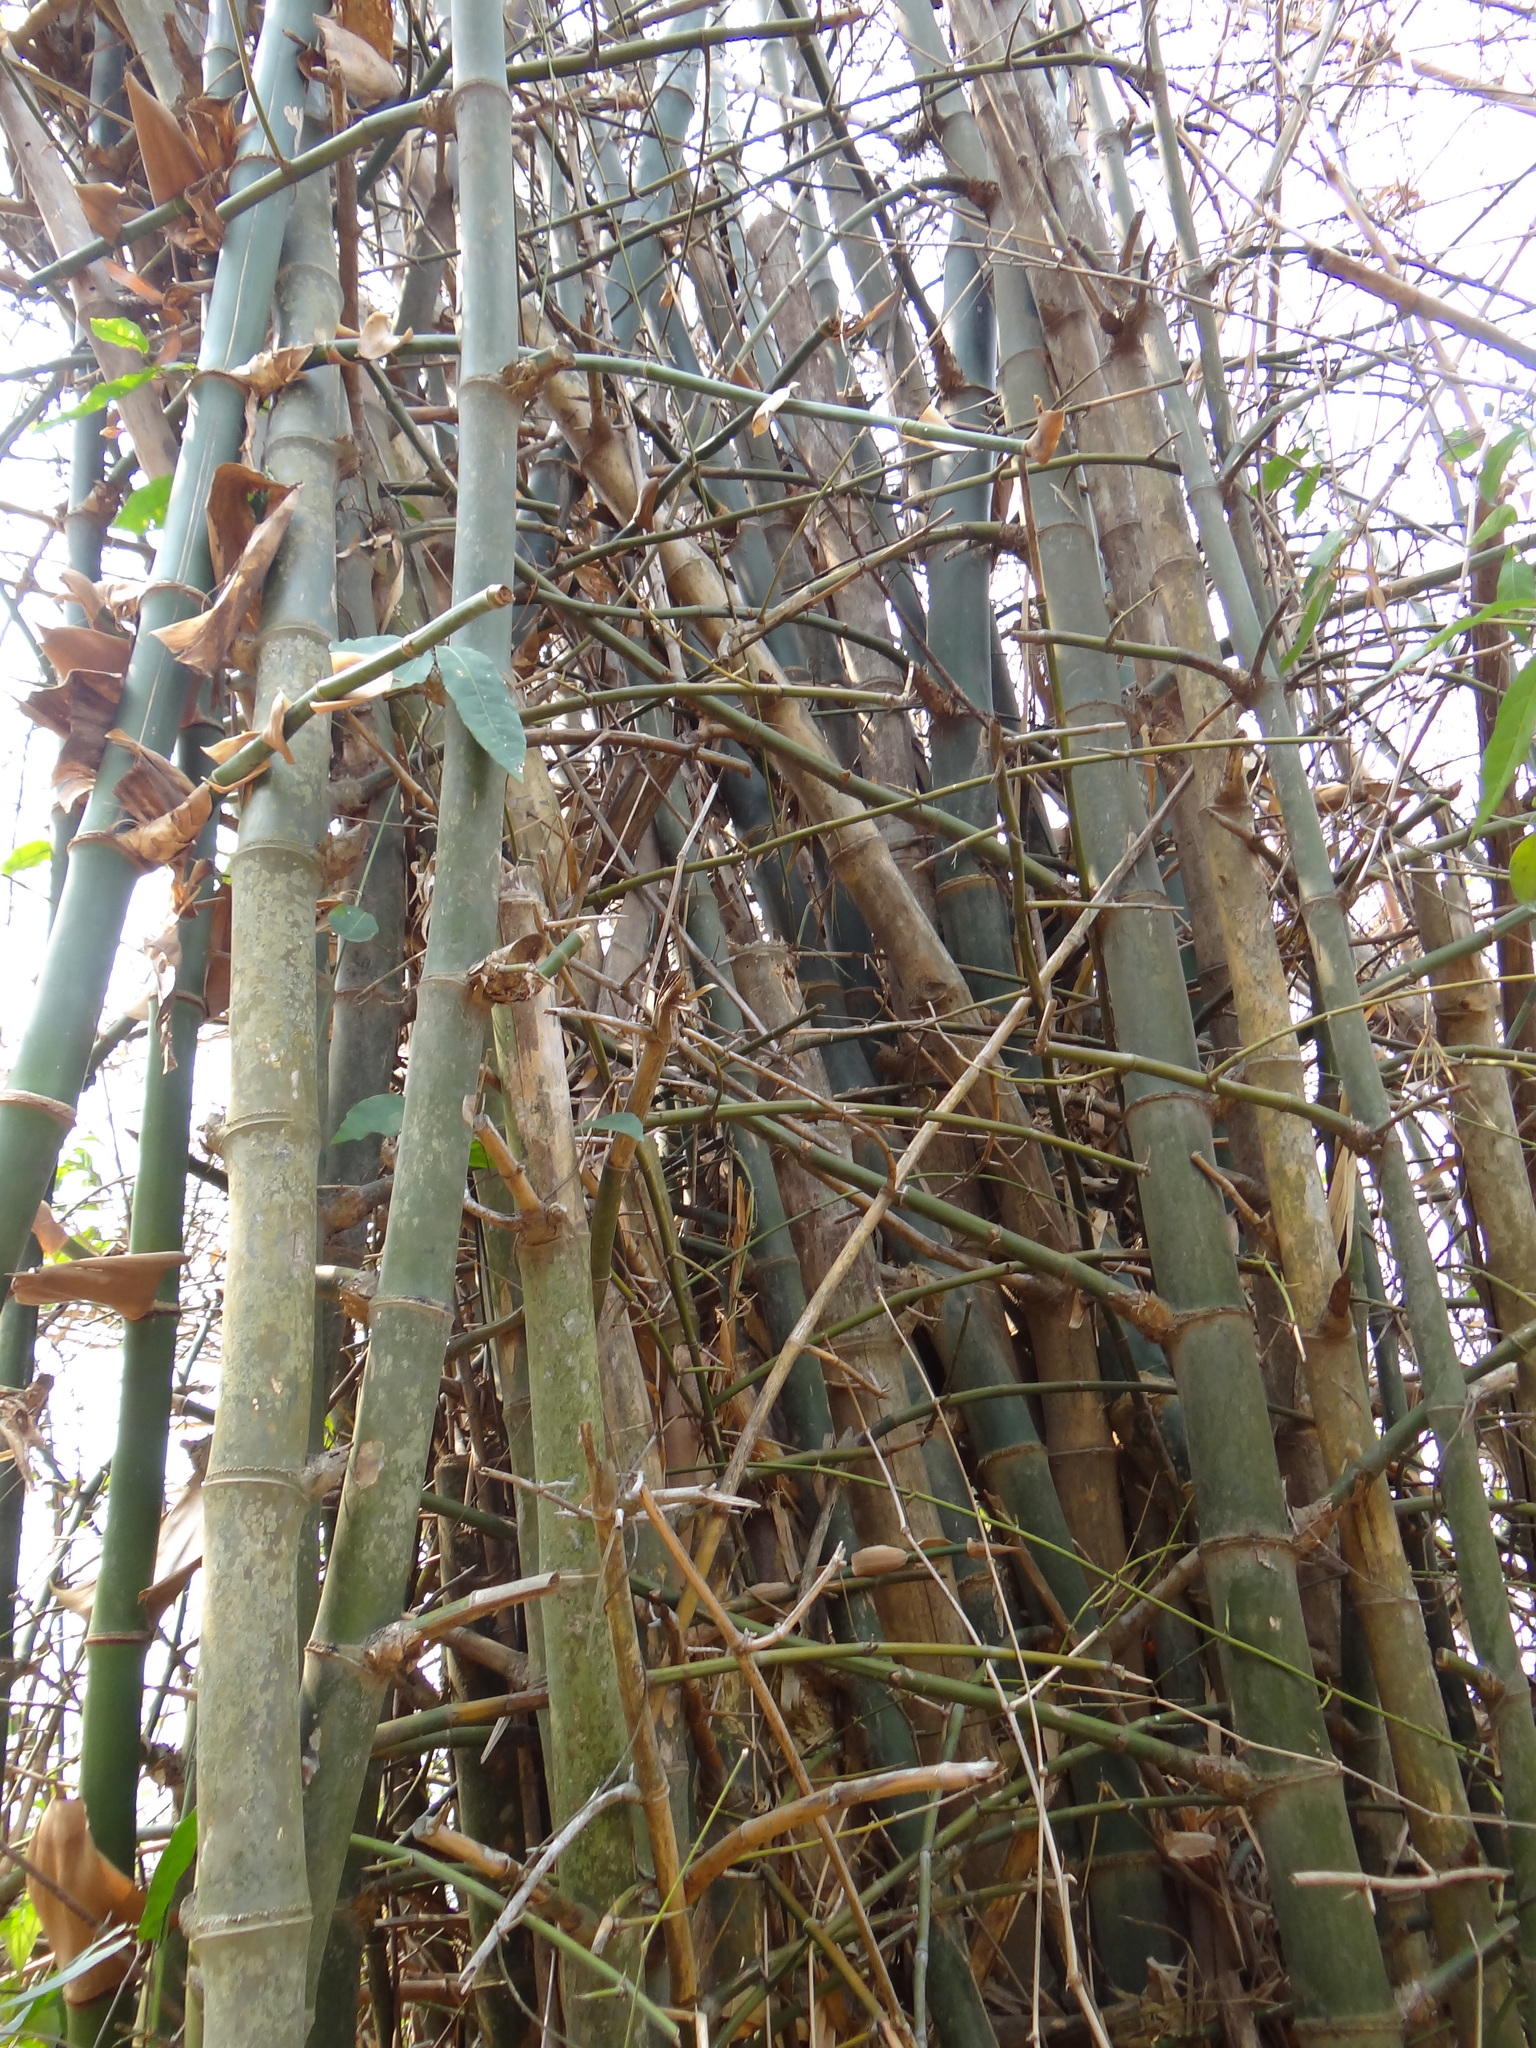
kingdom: Plantae
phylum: Tracheophyta
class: Liliopsida
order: Poales
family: Poaceae
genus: Bambusa
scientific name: Bambusa spinosa
